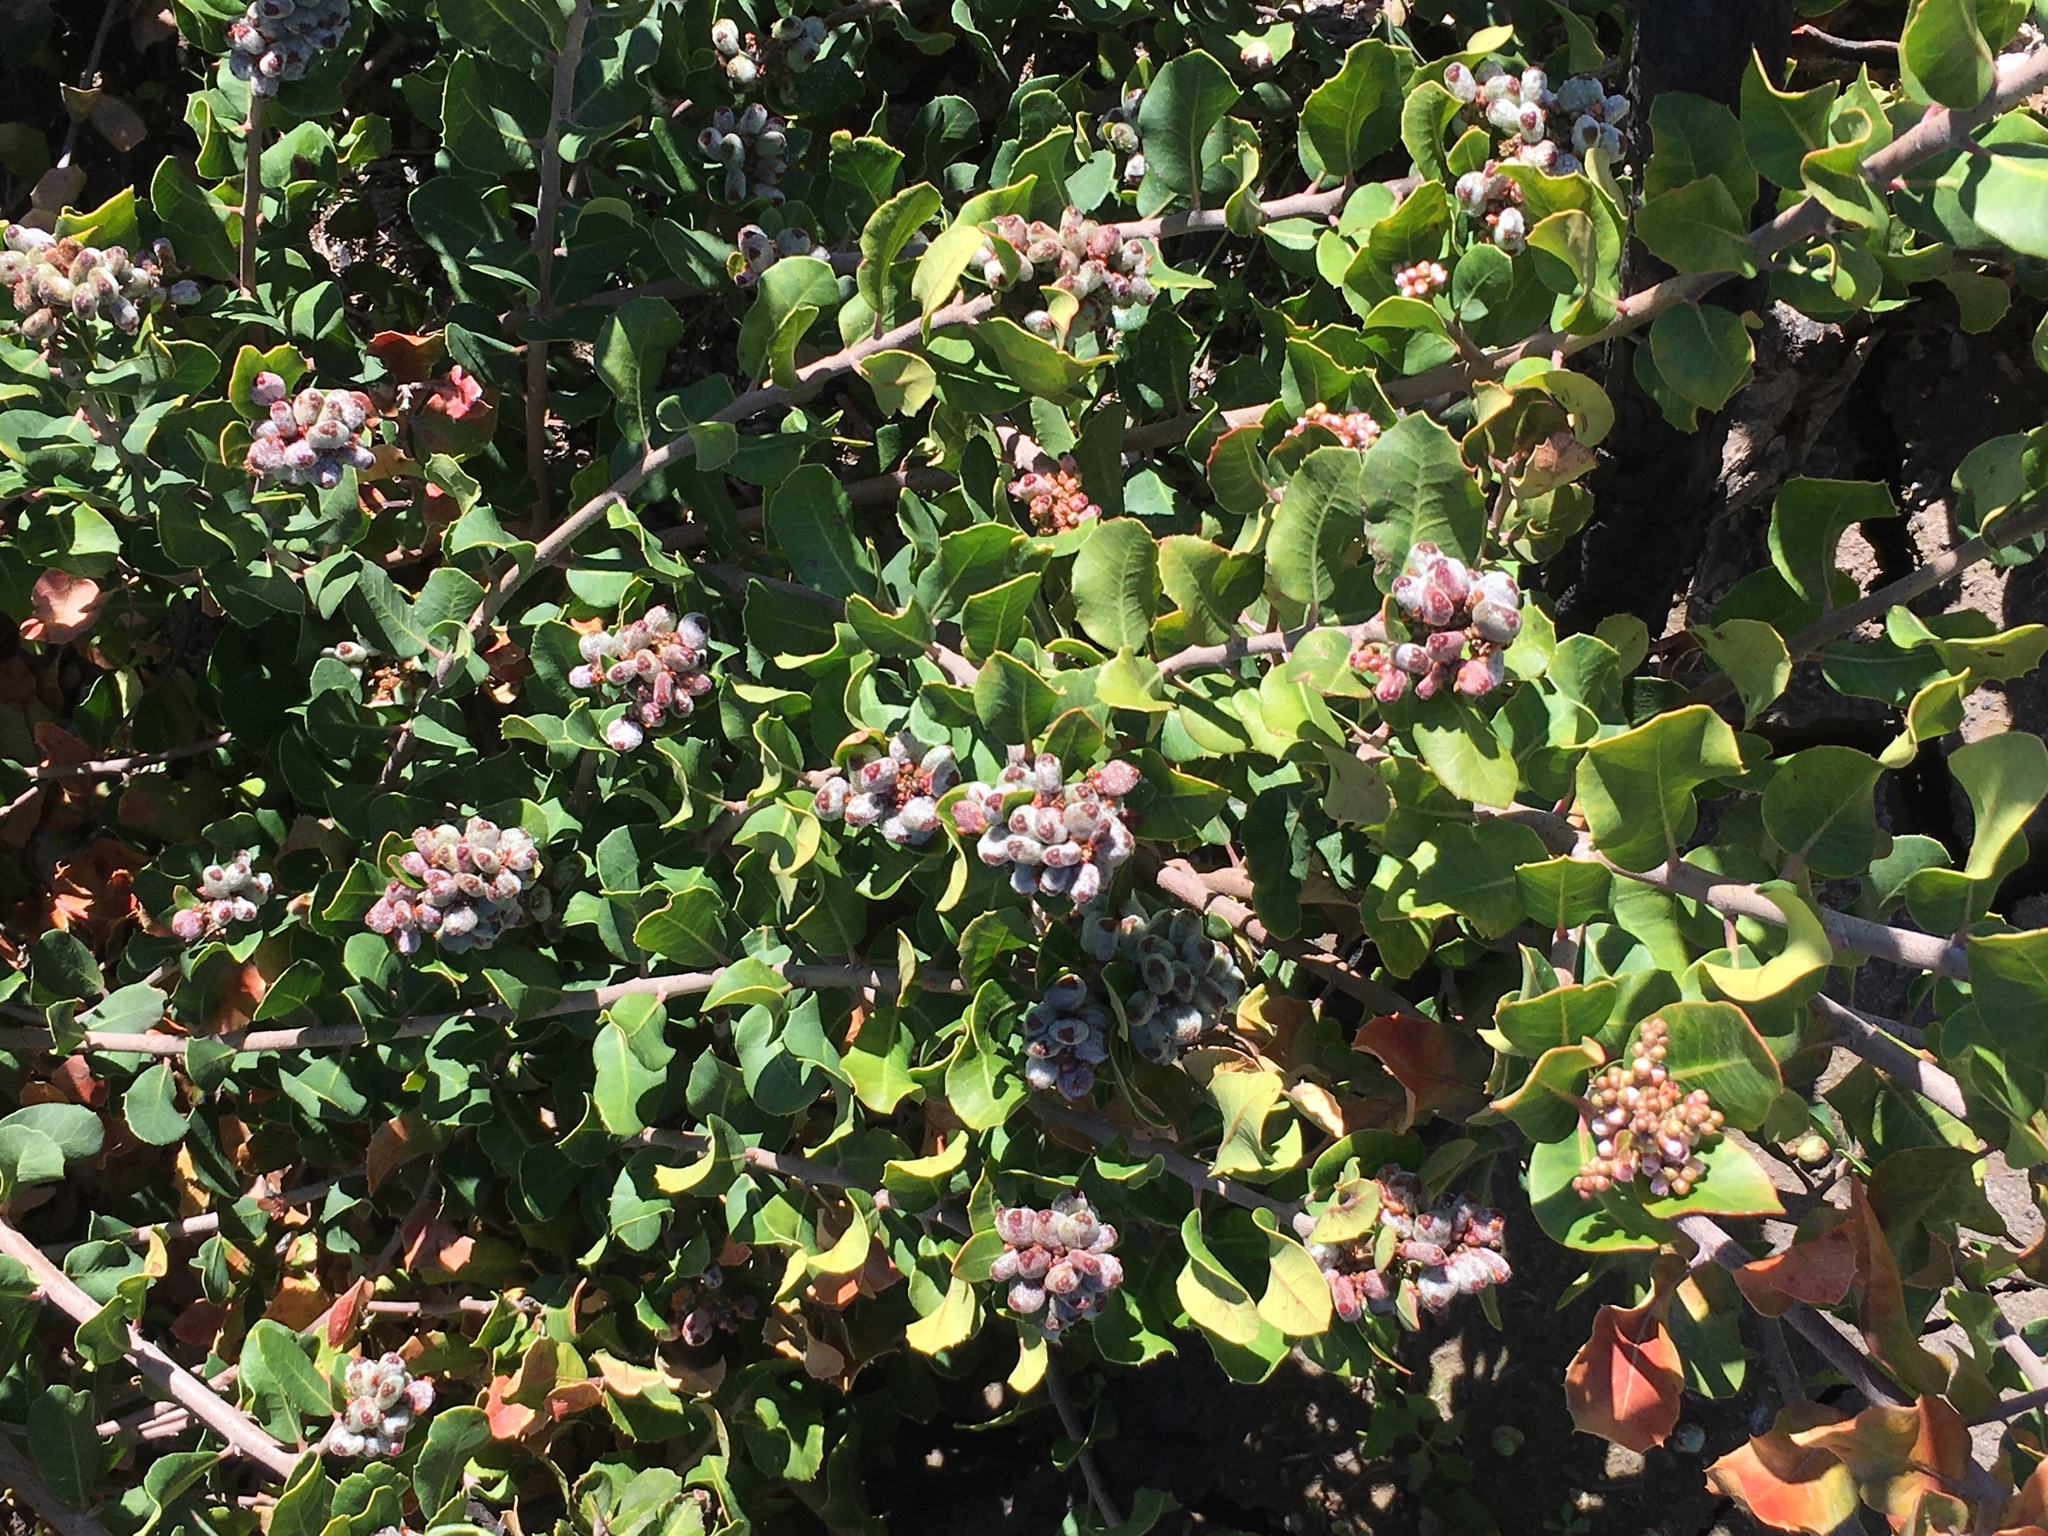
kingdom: Plantae
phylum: Tracheophyta
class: Magnoliopsida
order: Sapindales
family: Anacardiaceae
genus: Rhus
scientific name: Rhus integrifolia
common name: Lemonade sumac
